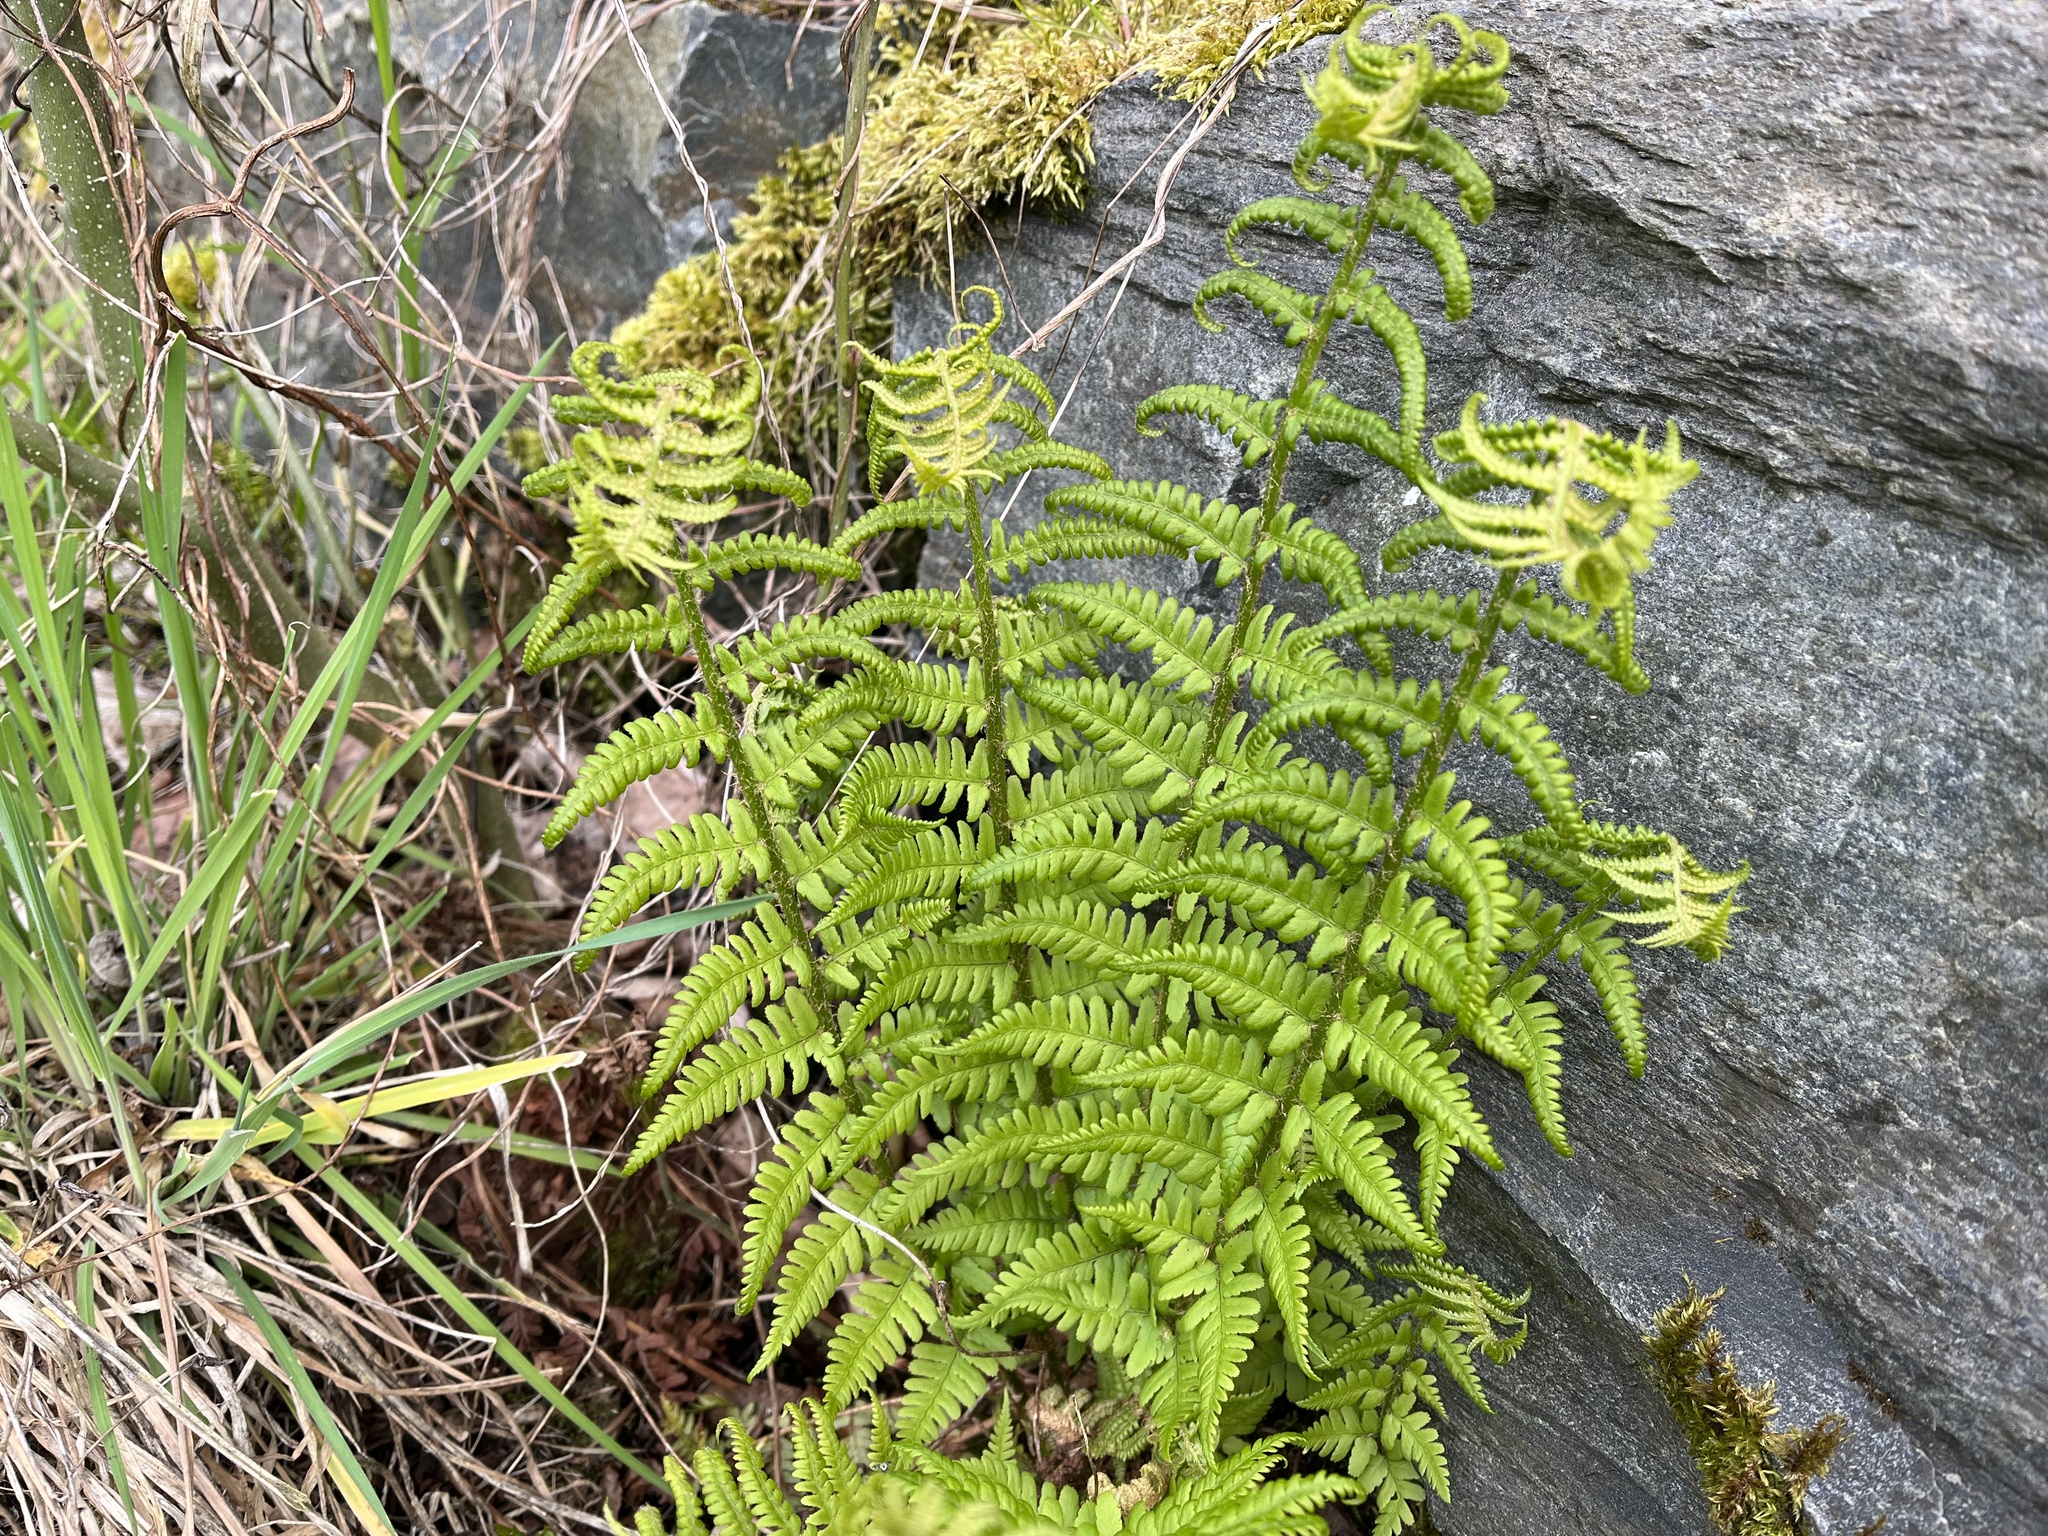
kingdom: Plantae
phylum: Tracheophyta
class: Polypodiopsida
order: Polypodiales
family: Dryopteridaceae
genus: Dryopteris
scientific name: Dryopteris filix-mas
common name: Male fern
